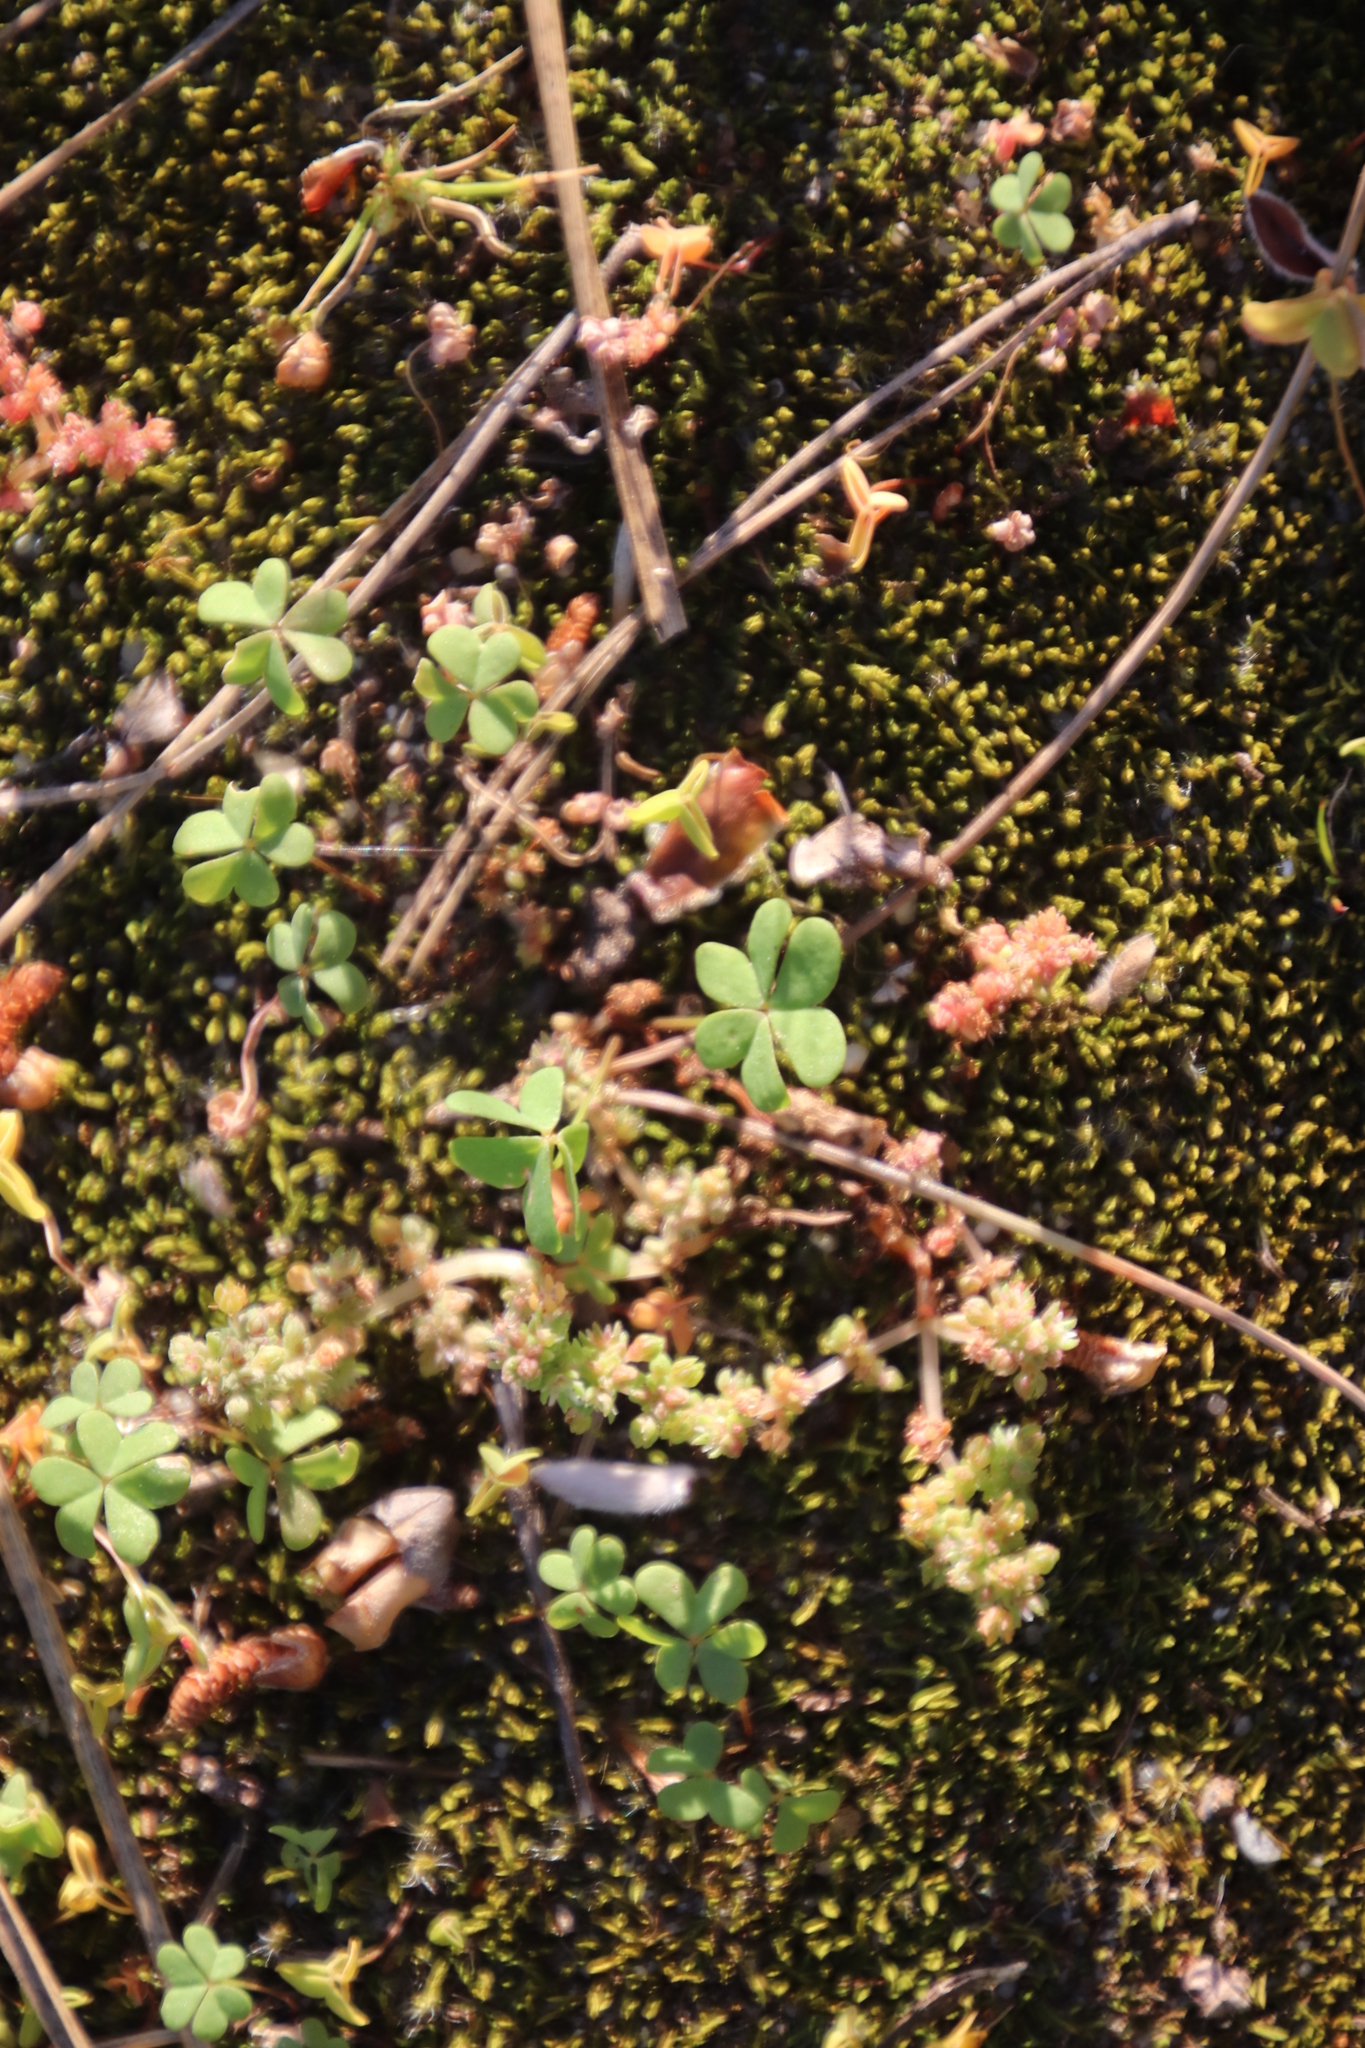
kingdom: Plantae
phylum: Tracheophyta
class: Magnoliopsida
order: Oxalidales
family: Oxalidaceae
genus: Oxalis
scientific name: Oxalis pes-caprae
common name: Bermuda-buttercup
